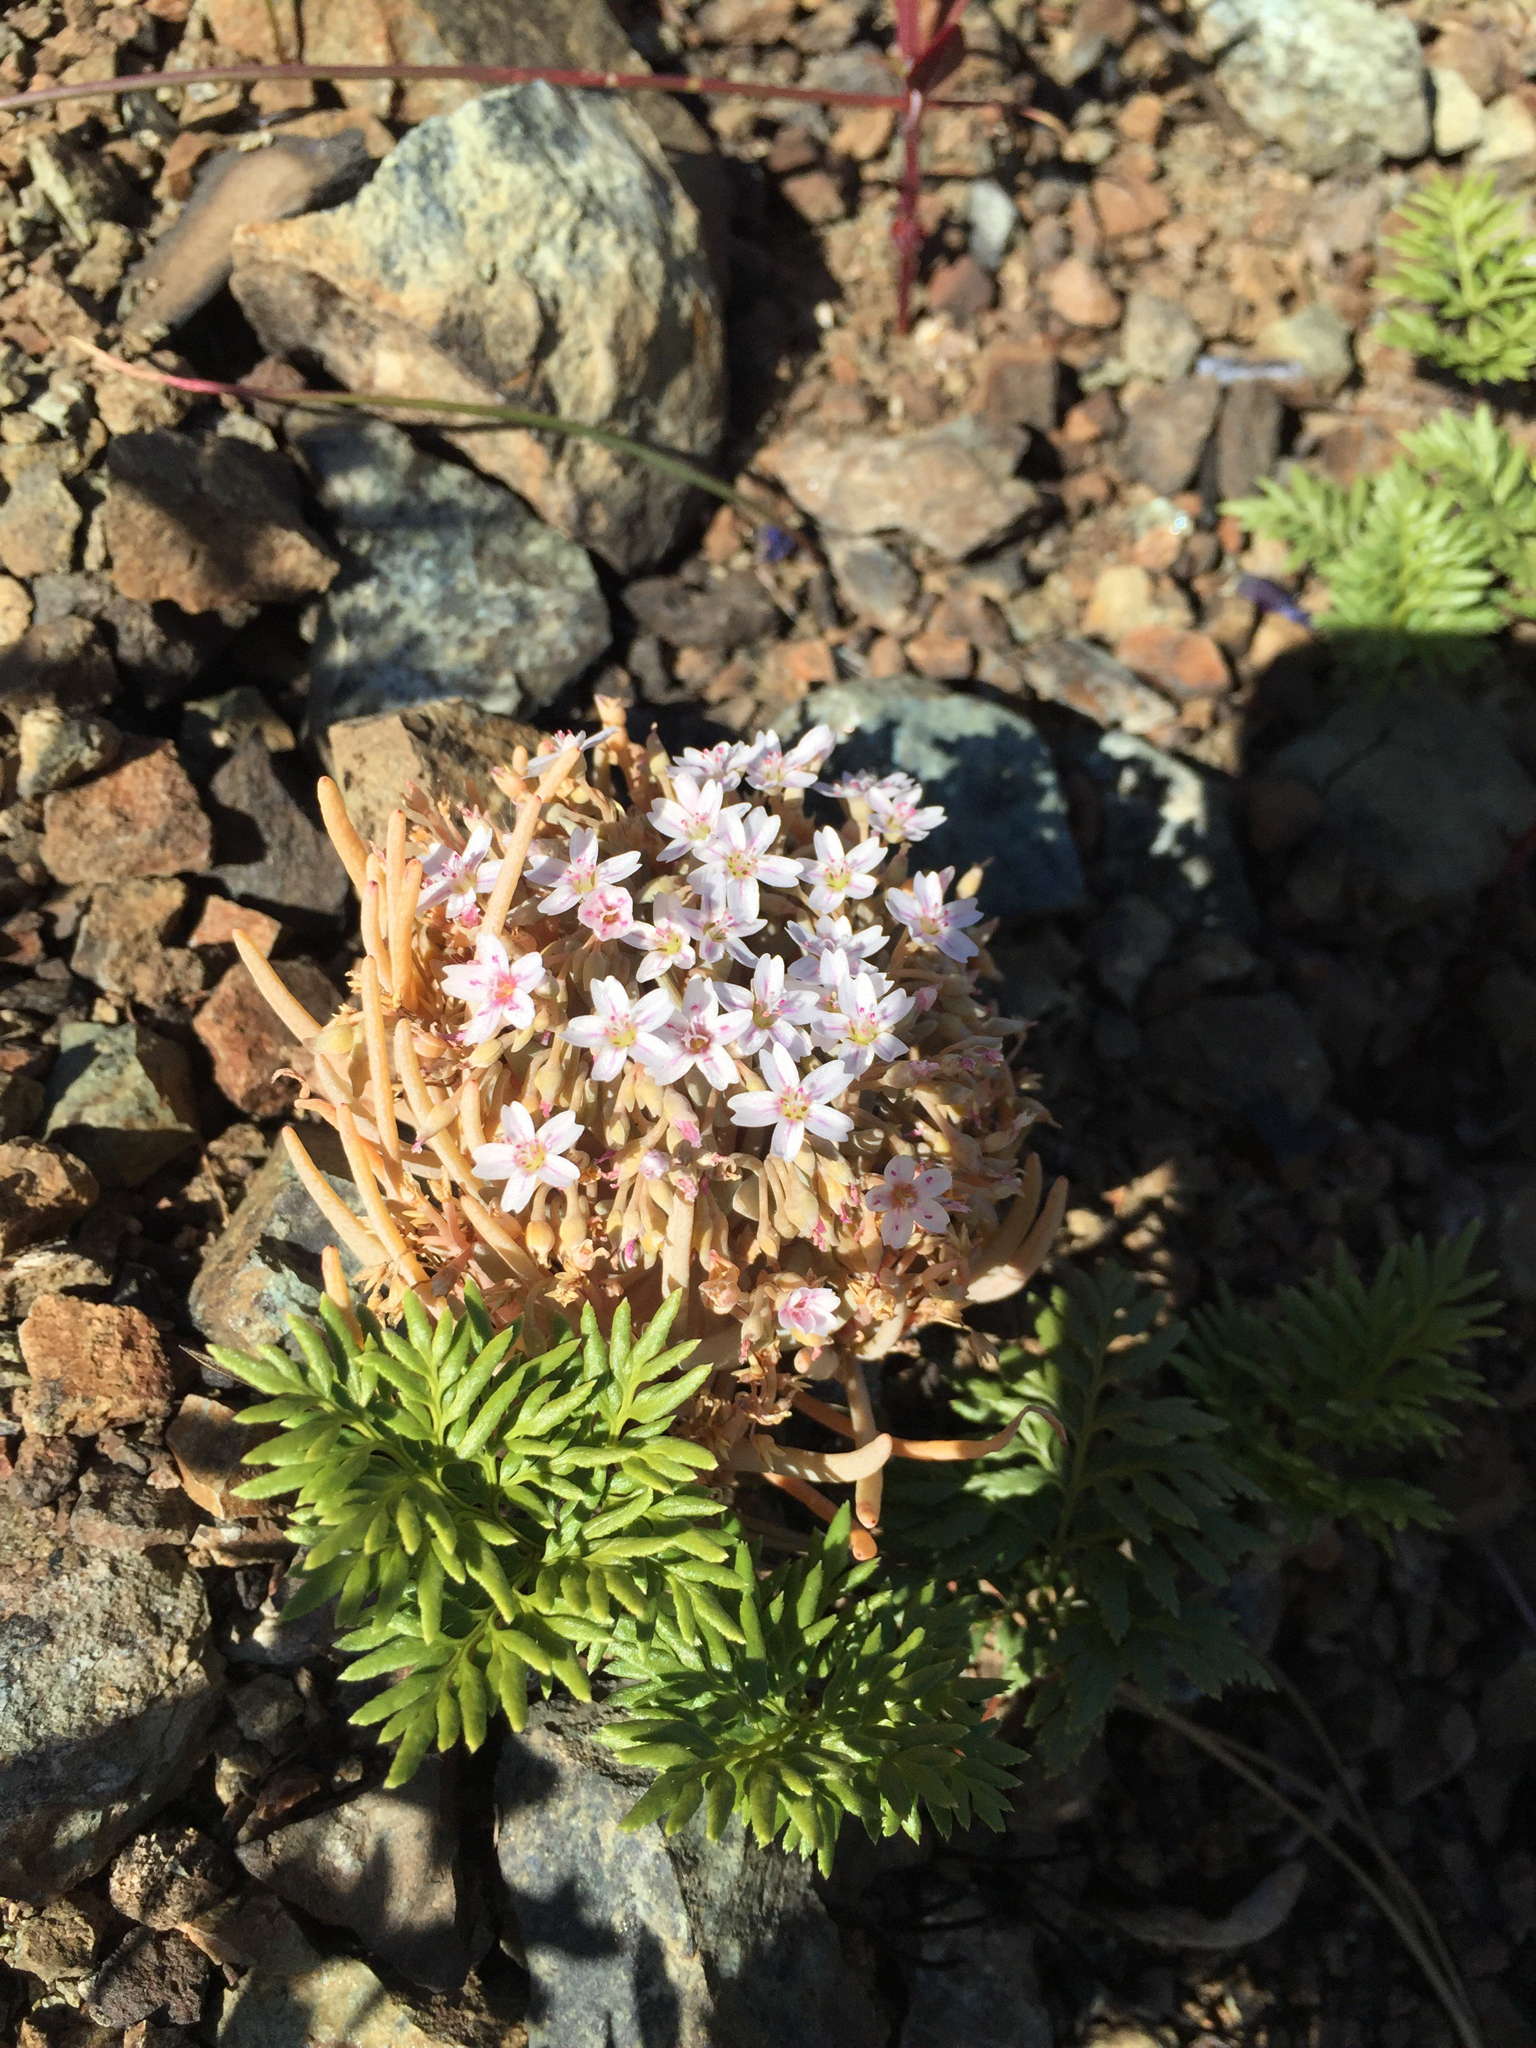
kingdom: Plantae
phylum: Tracheophyta
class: Magnoliopsida
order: Caryophyllales
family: Montiaceae
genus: Claytonia
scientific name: Claytonia exigua
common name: Pale spring beauty
